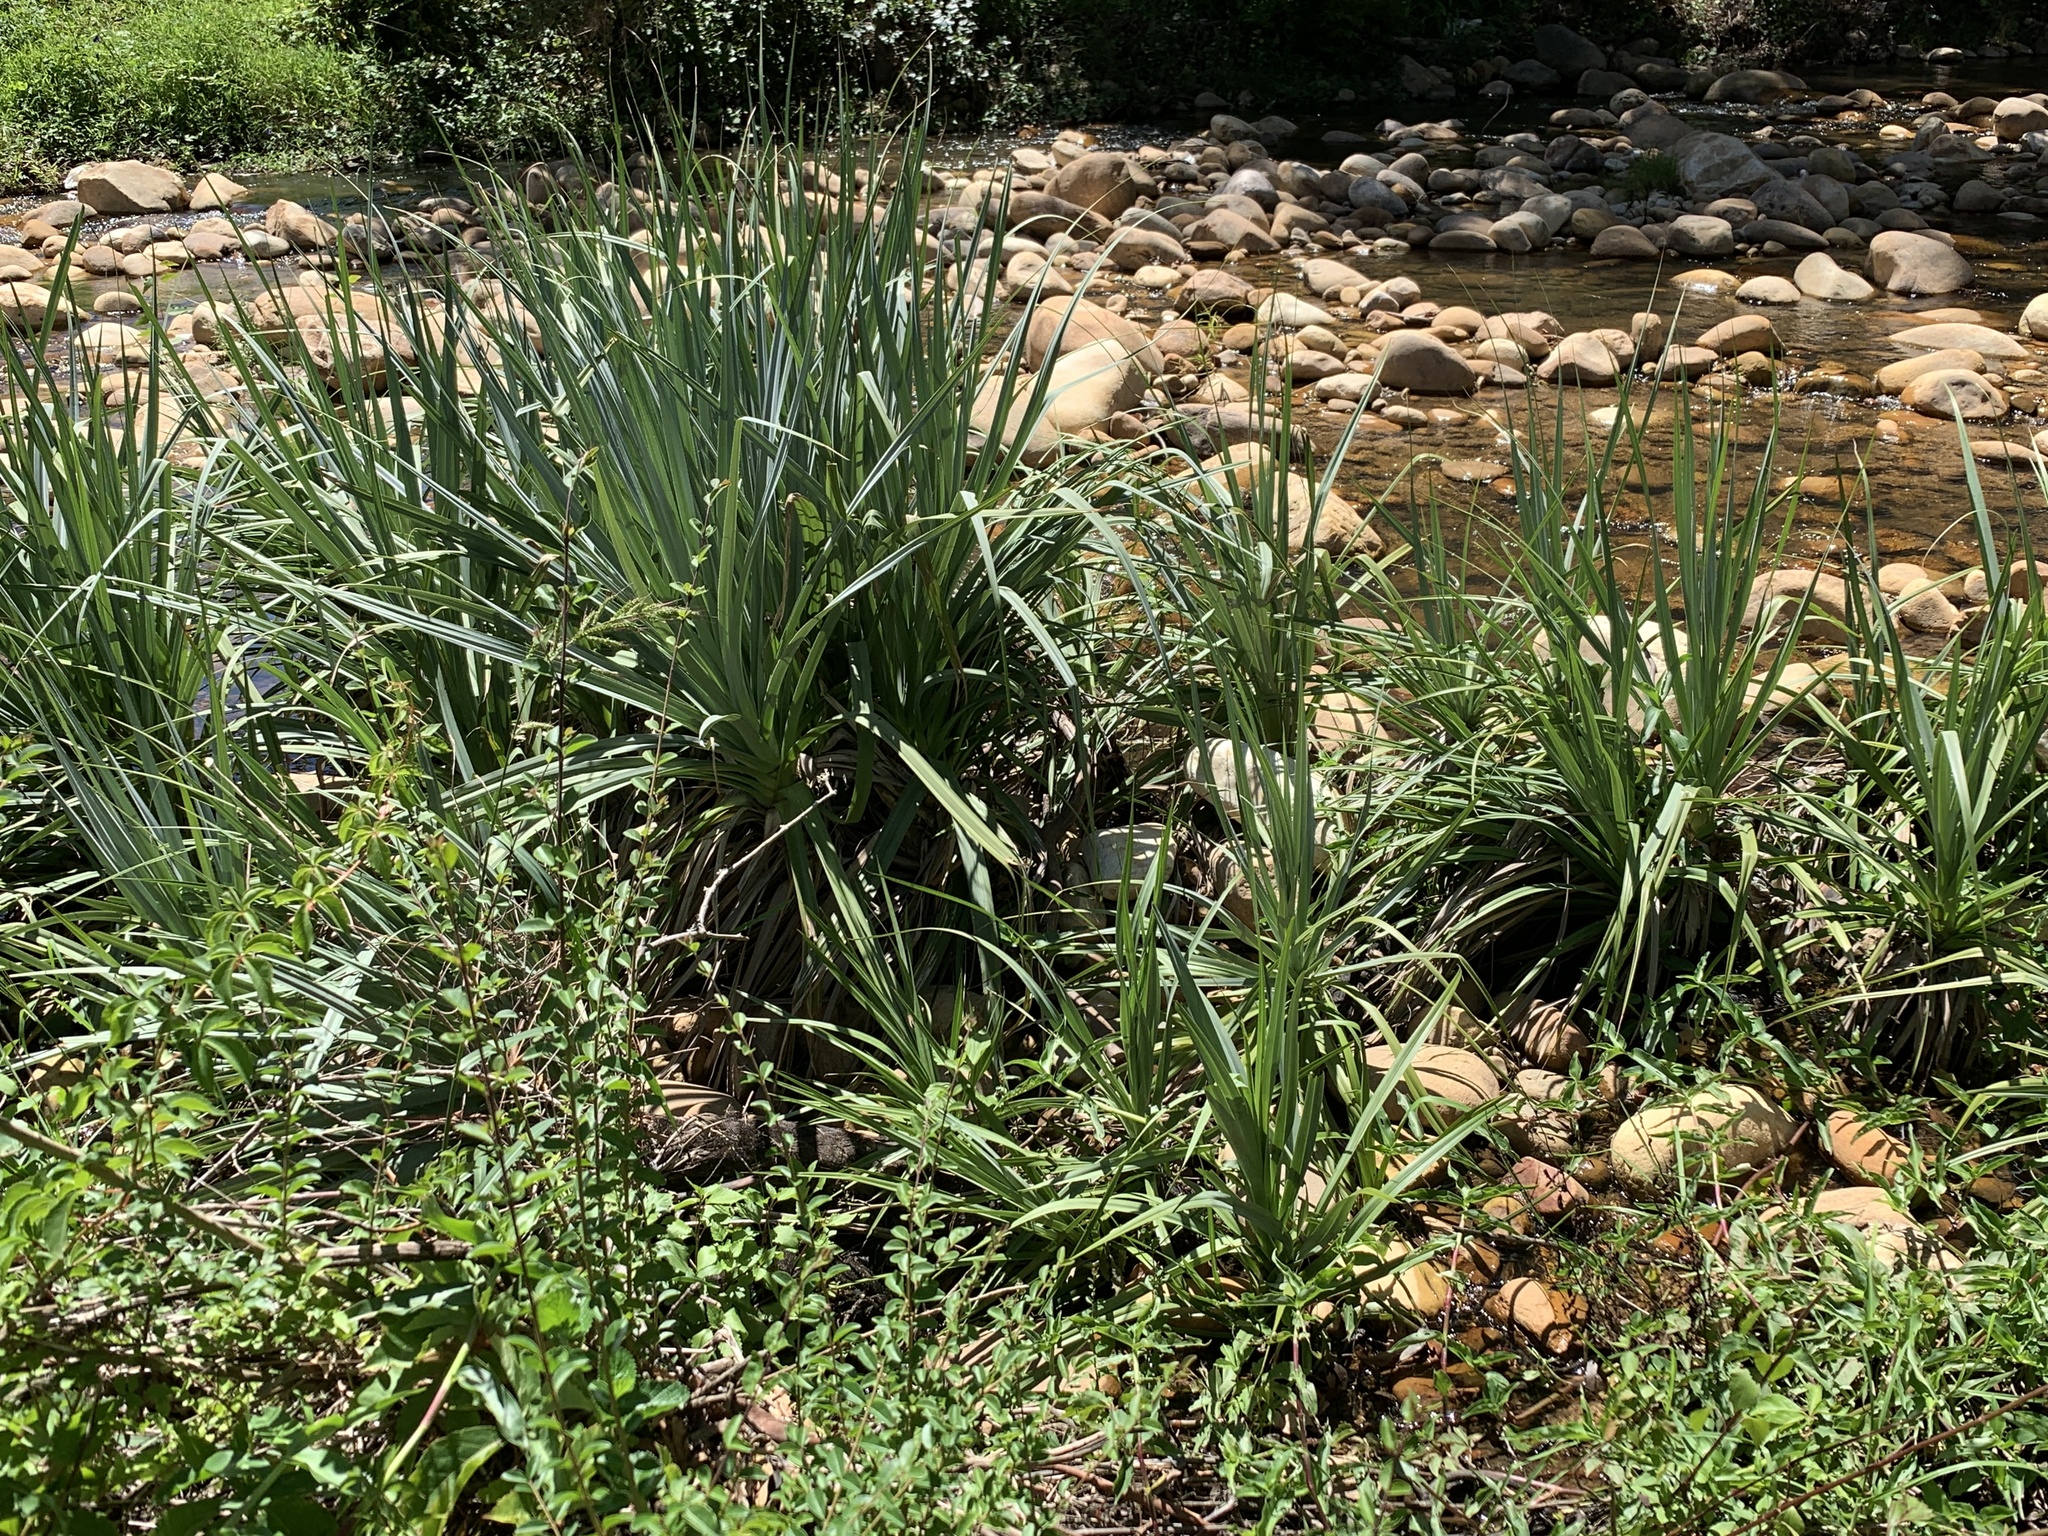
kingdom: Plantae
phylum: Tracheophyta
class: Liliopsida
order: Poales
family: Thurniaceae
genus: Prionium
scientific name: Prionium serratum
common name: Palmiet
